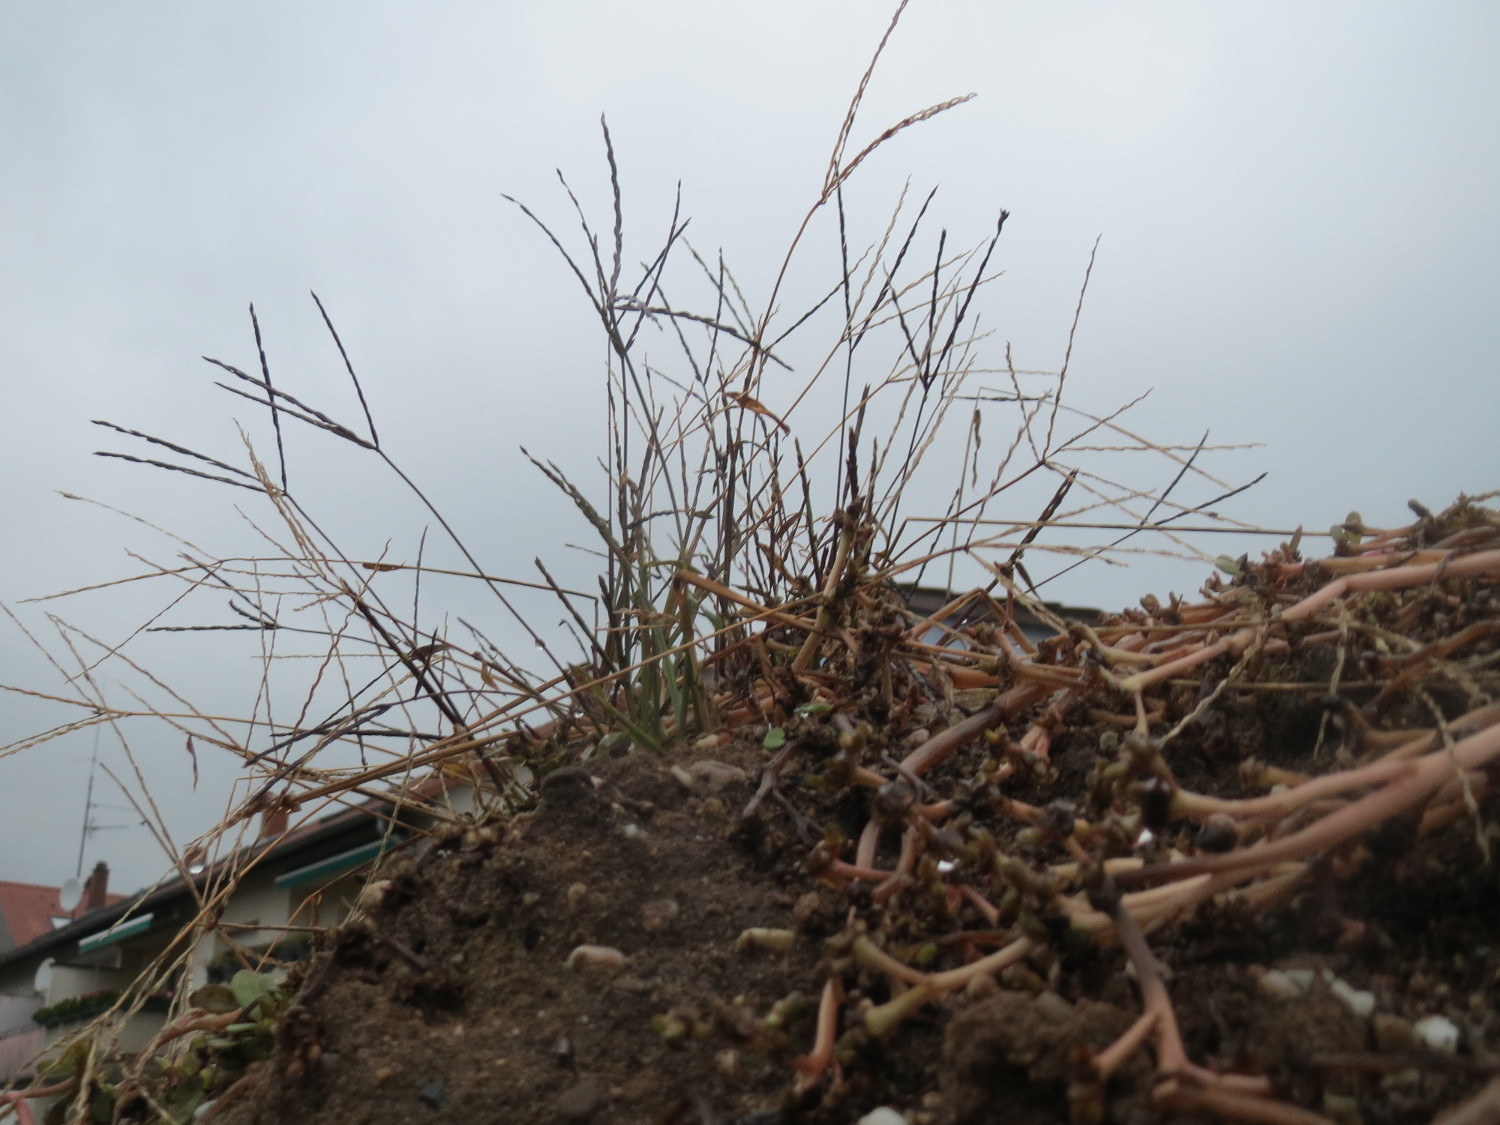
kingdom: Plantae
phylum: Tracheophyta
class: Liliopsida
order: Poales
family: Poaceae
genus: Digitaria
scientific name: Digitaria sanguinalis
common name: Hairy crabgrass
